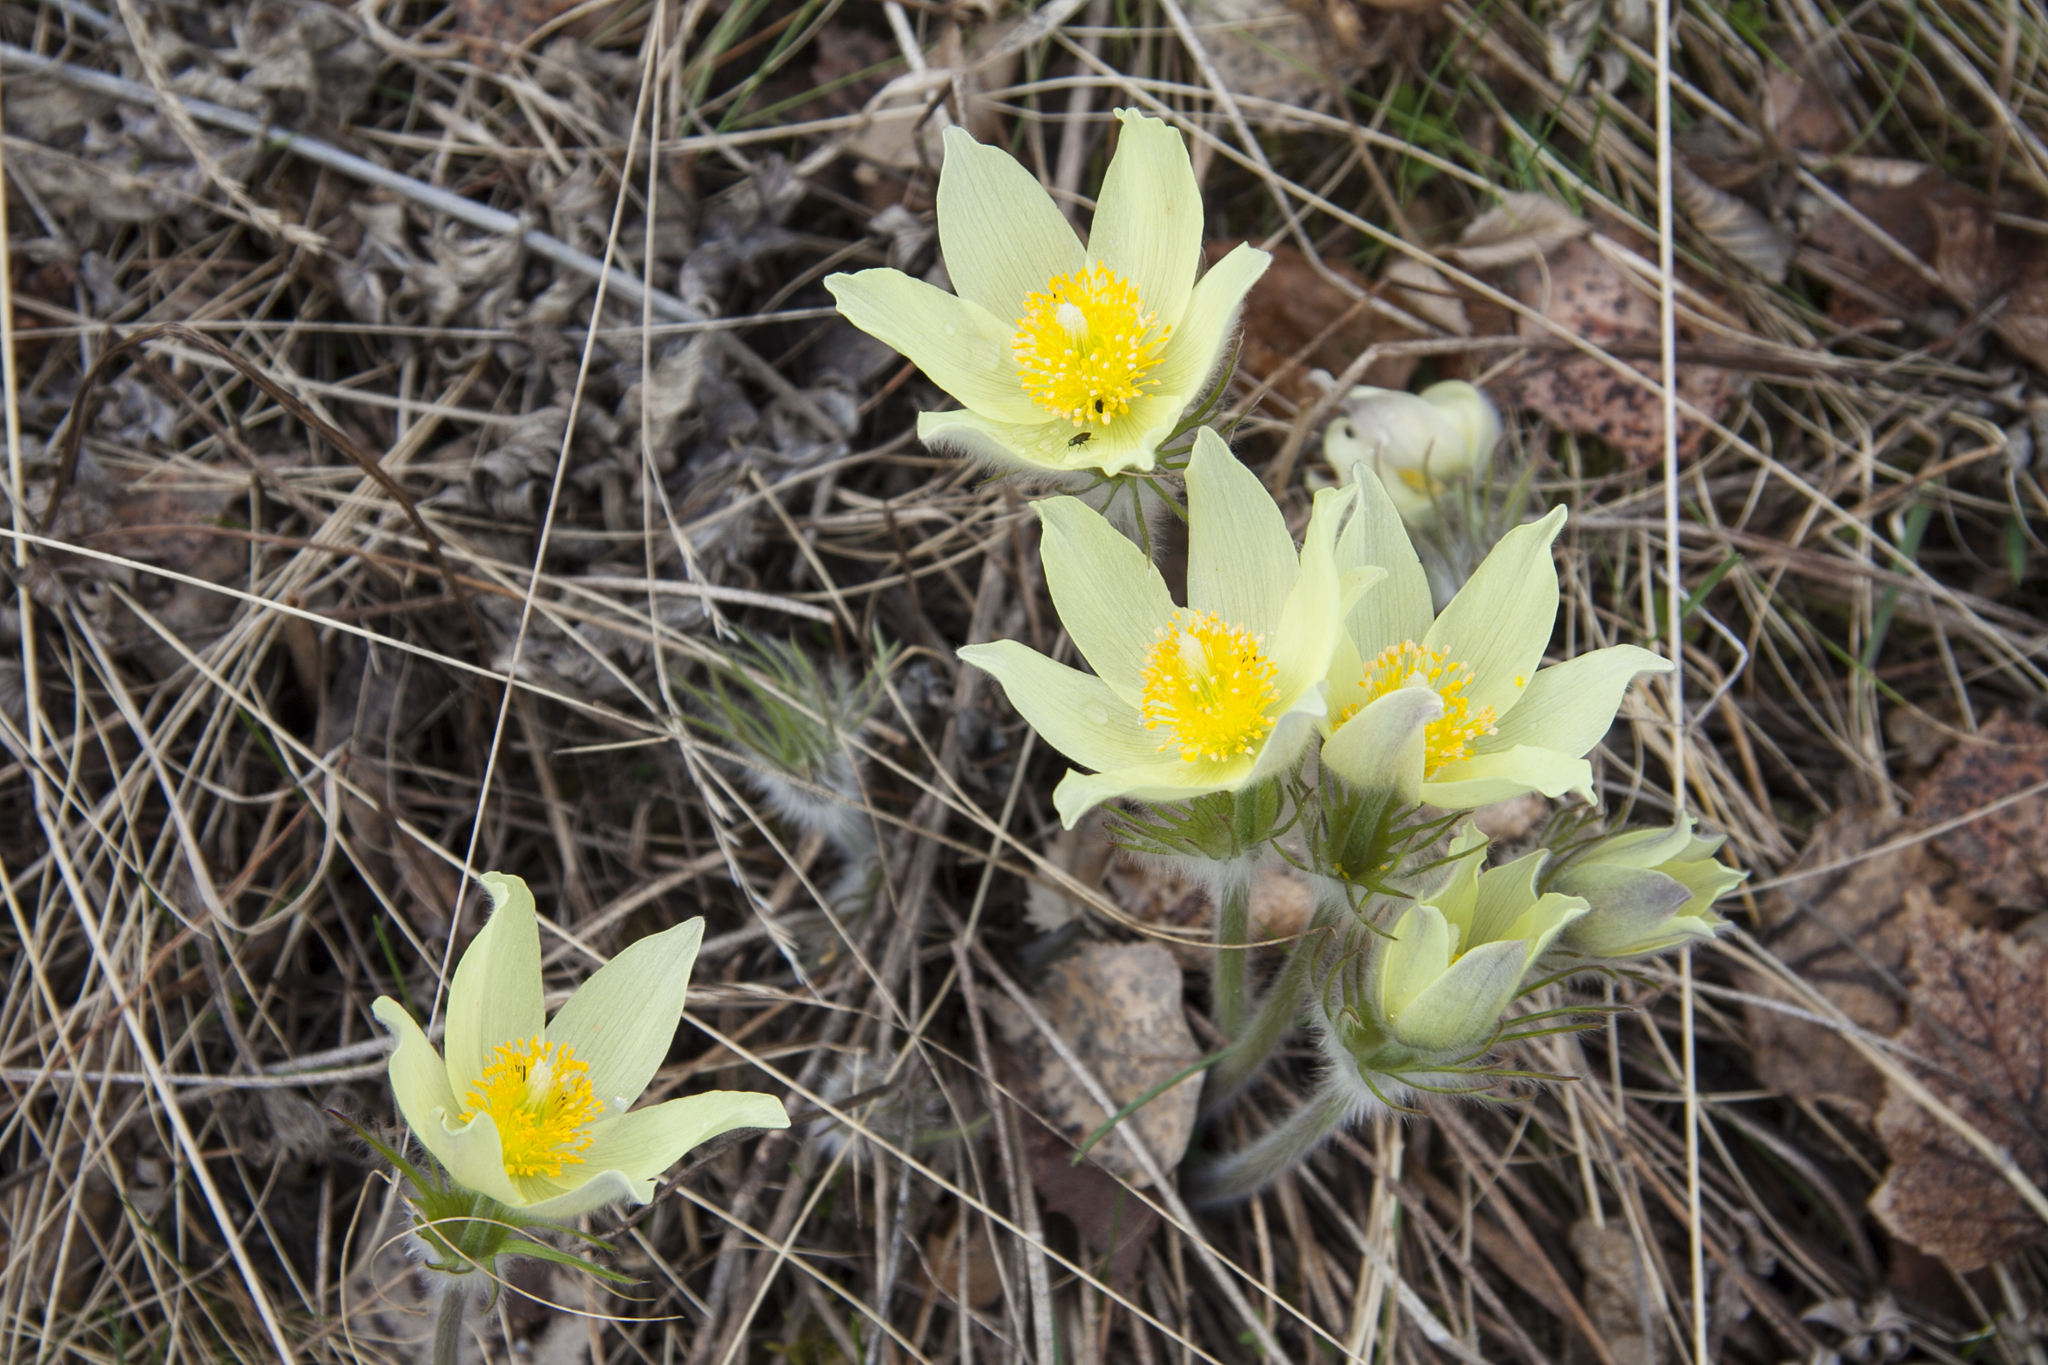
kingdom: Plantae
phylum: Tracheophyta
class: Magnoliopsida
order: Ranunculales
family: Ranunculaceae
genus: Pulsatilla
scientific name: Pulsatilla patens
